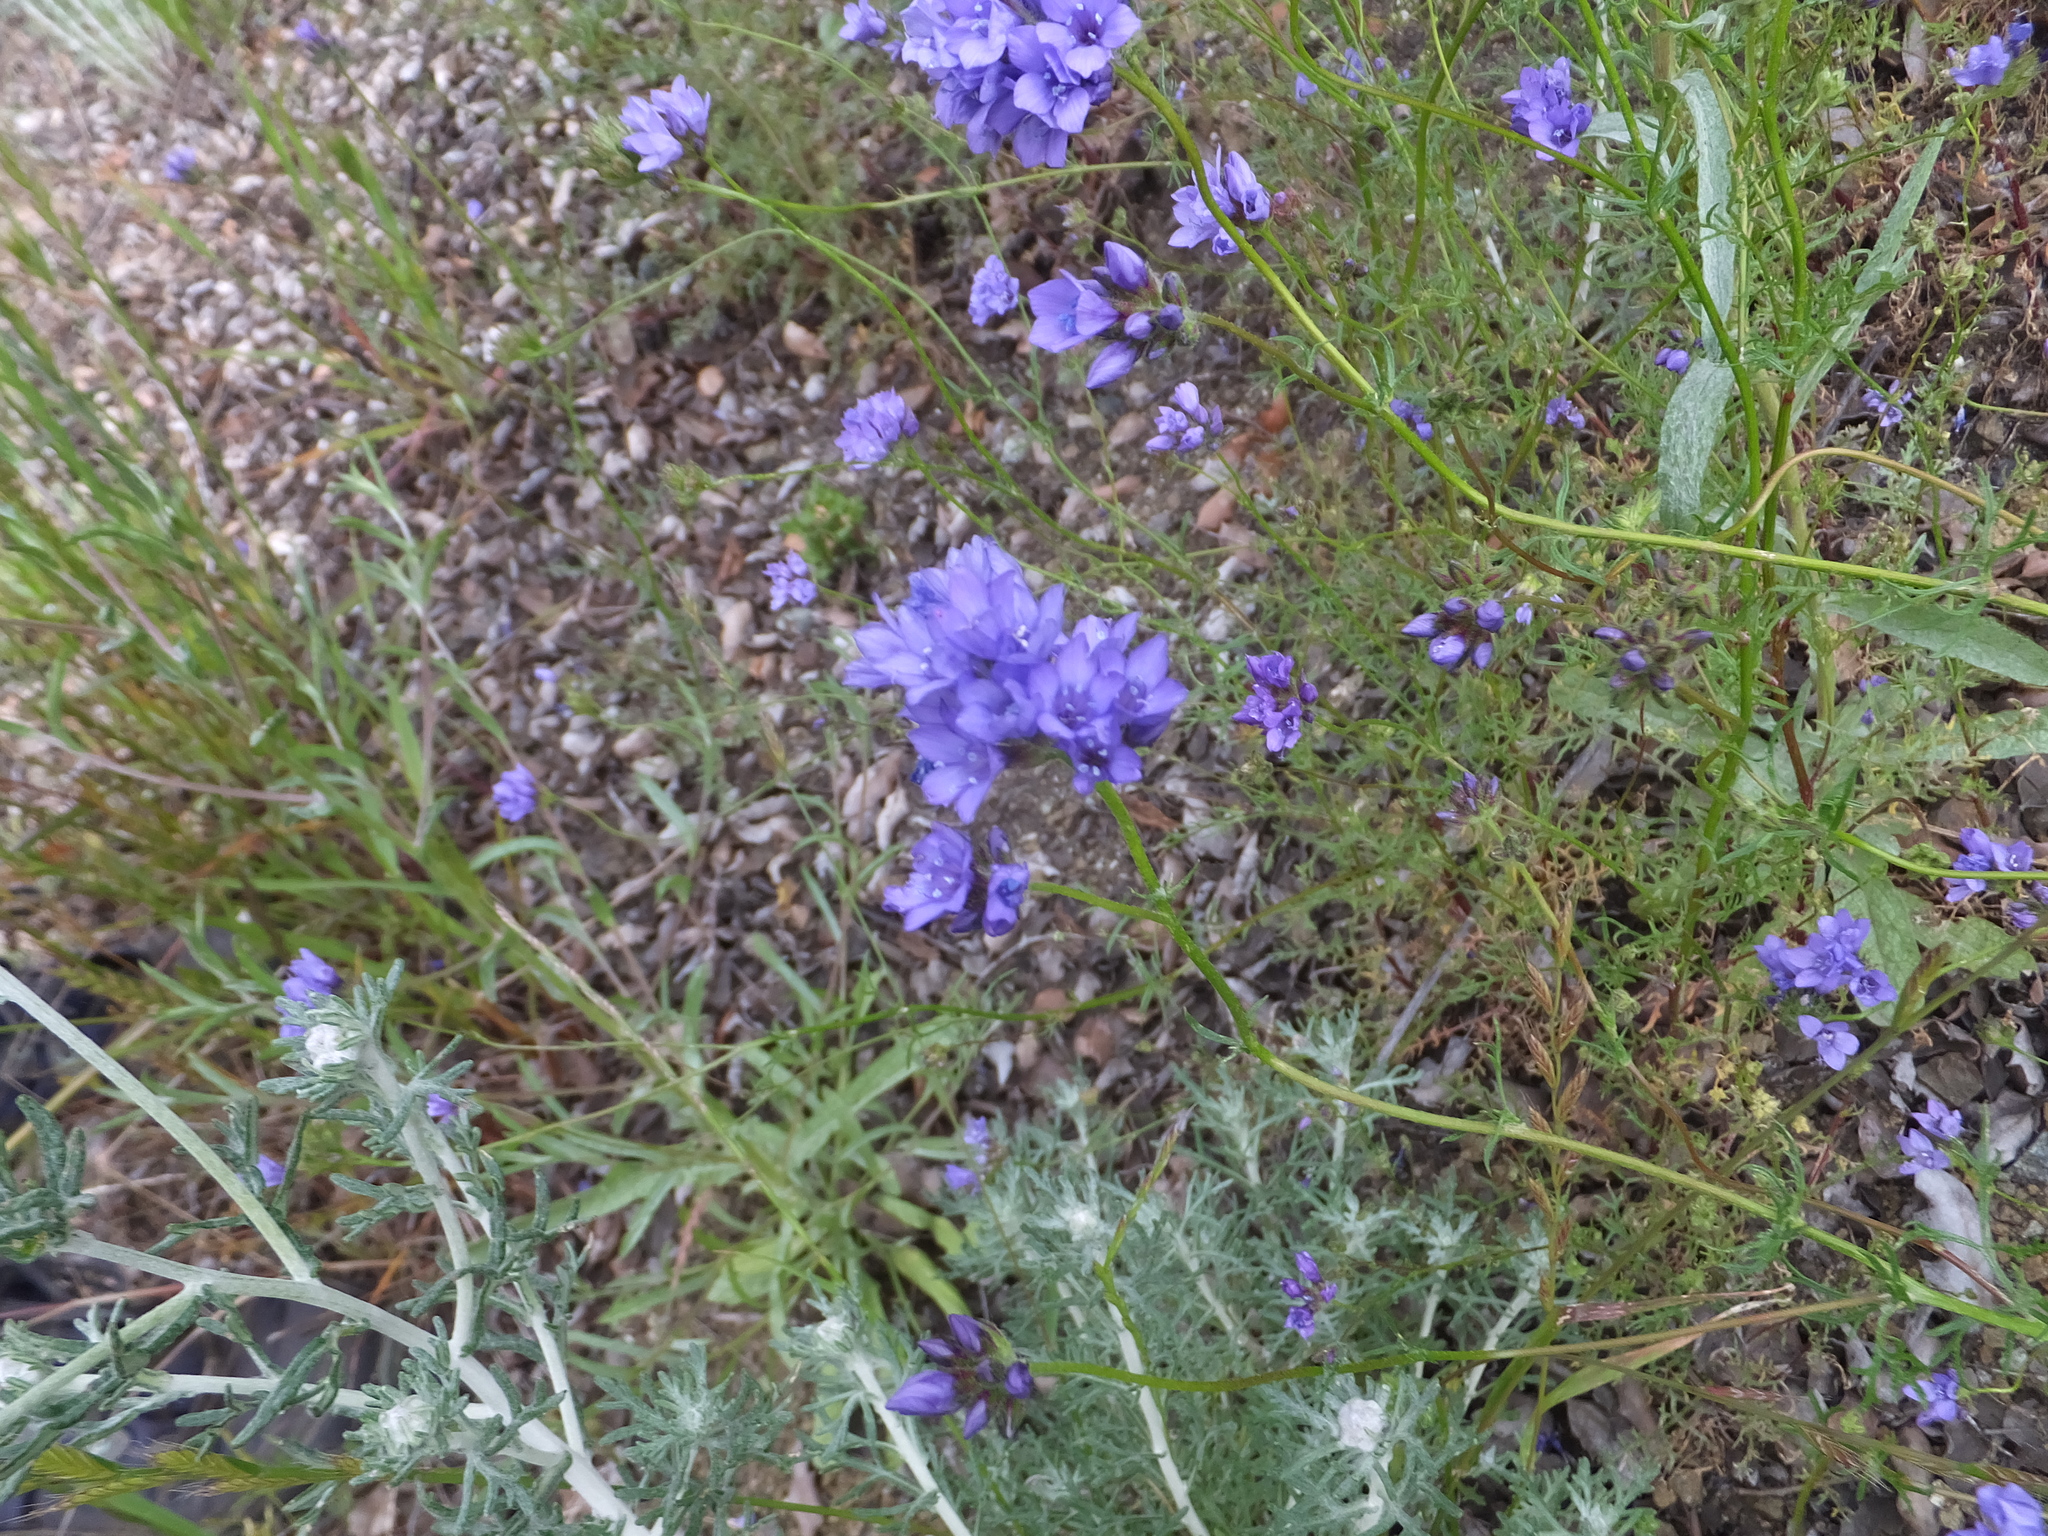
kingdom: Plantae
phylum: Tracheophyta
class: Magnoliopsida
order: Ericales
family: Polemoniaceae
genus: Gilia
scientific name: Gilia achilleifolia
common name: California gily-flower
